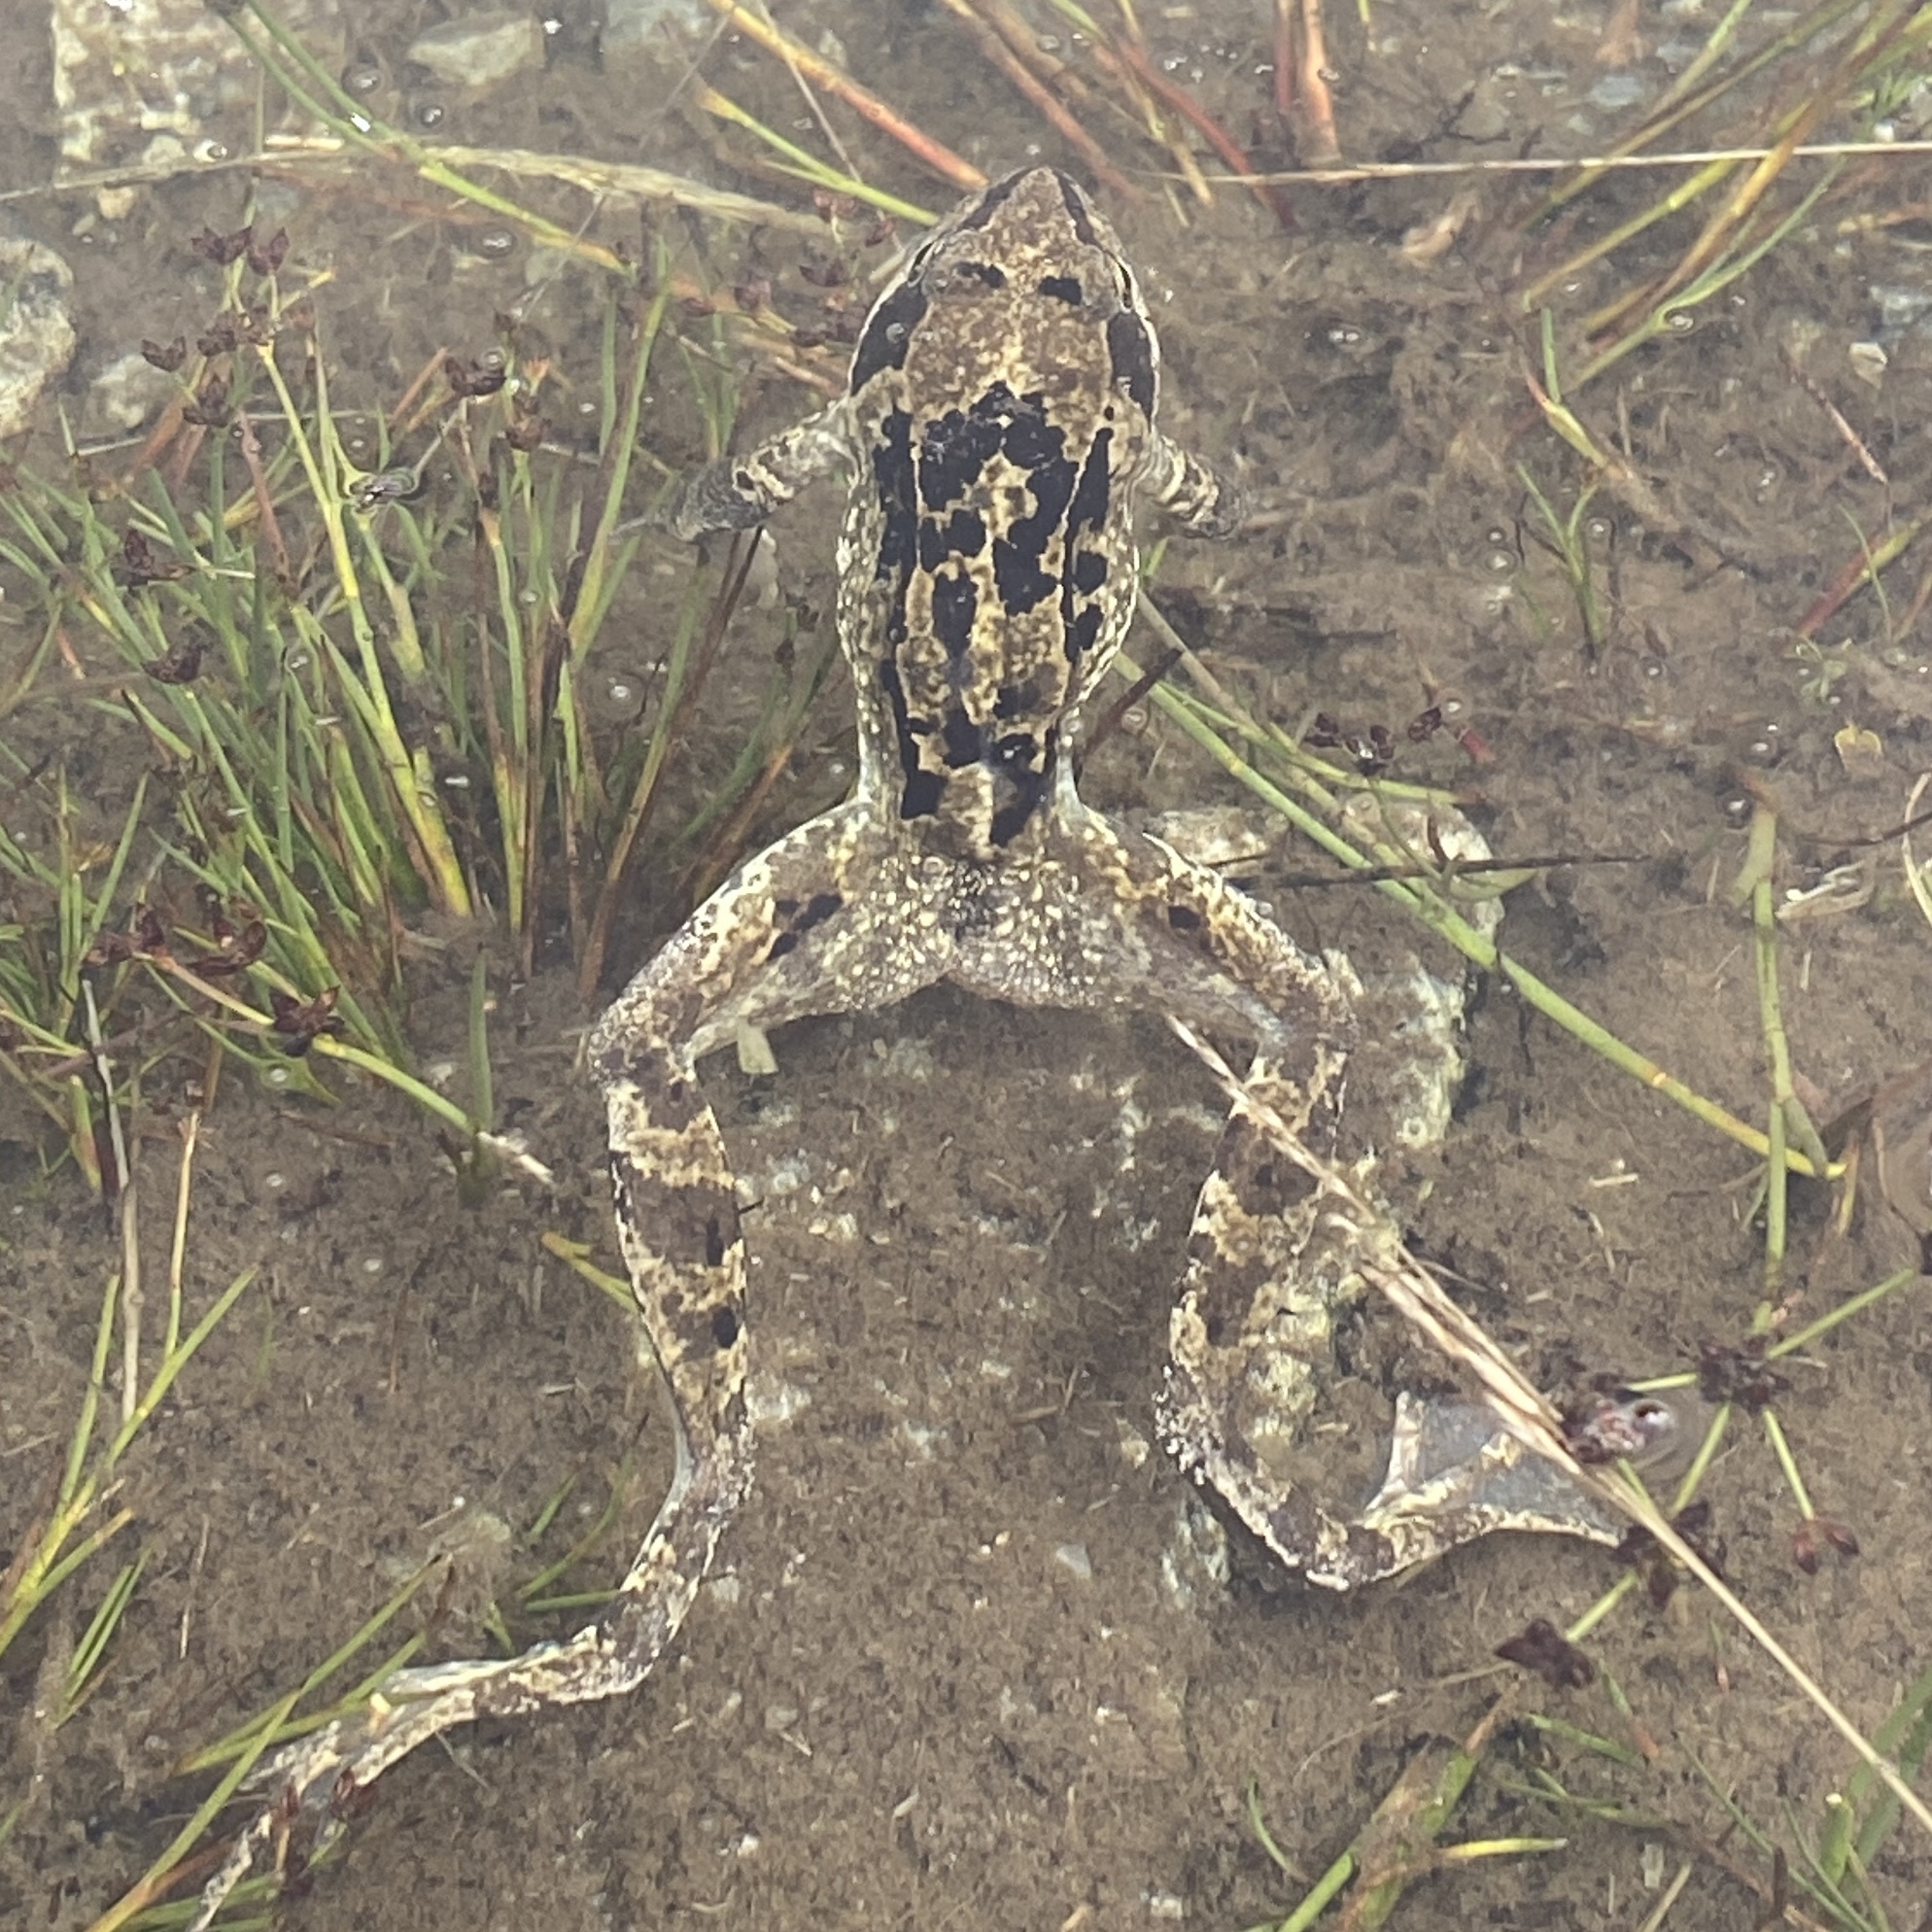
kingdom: Animalia
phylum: Chordata
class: Amphibia
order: Anura
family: Ranidae
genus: Rana
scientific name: Rana temporaria
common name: Common frog
